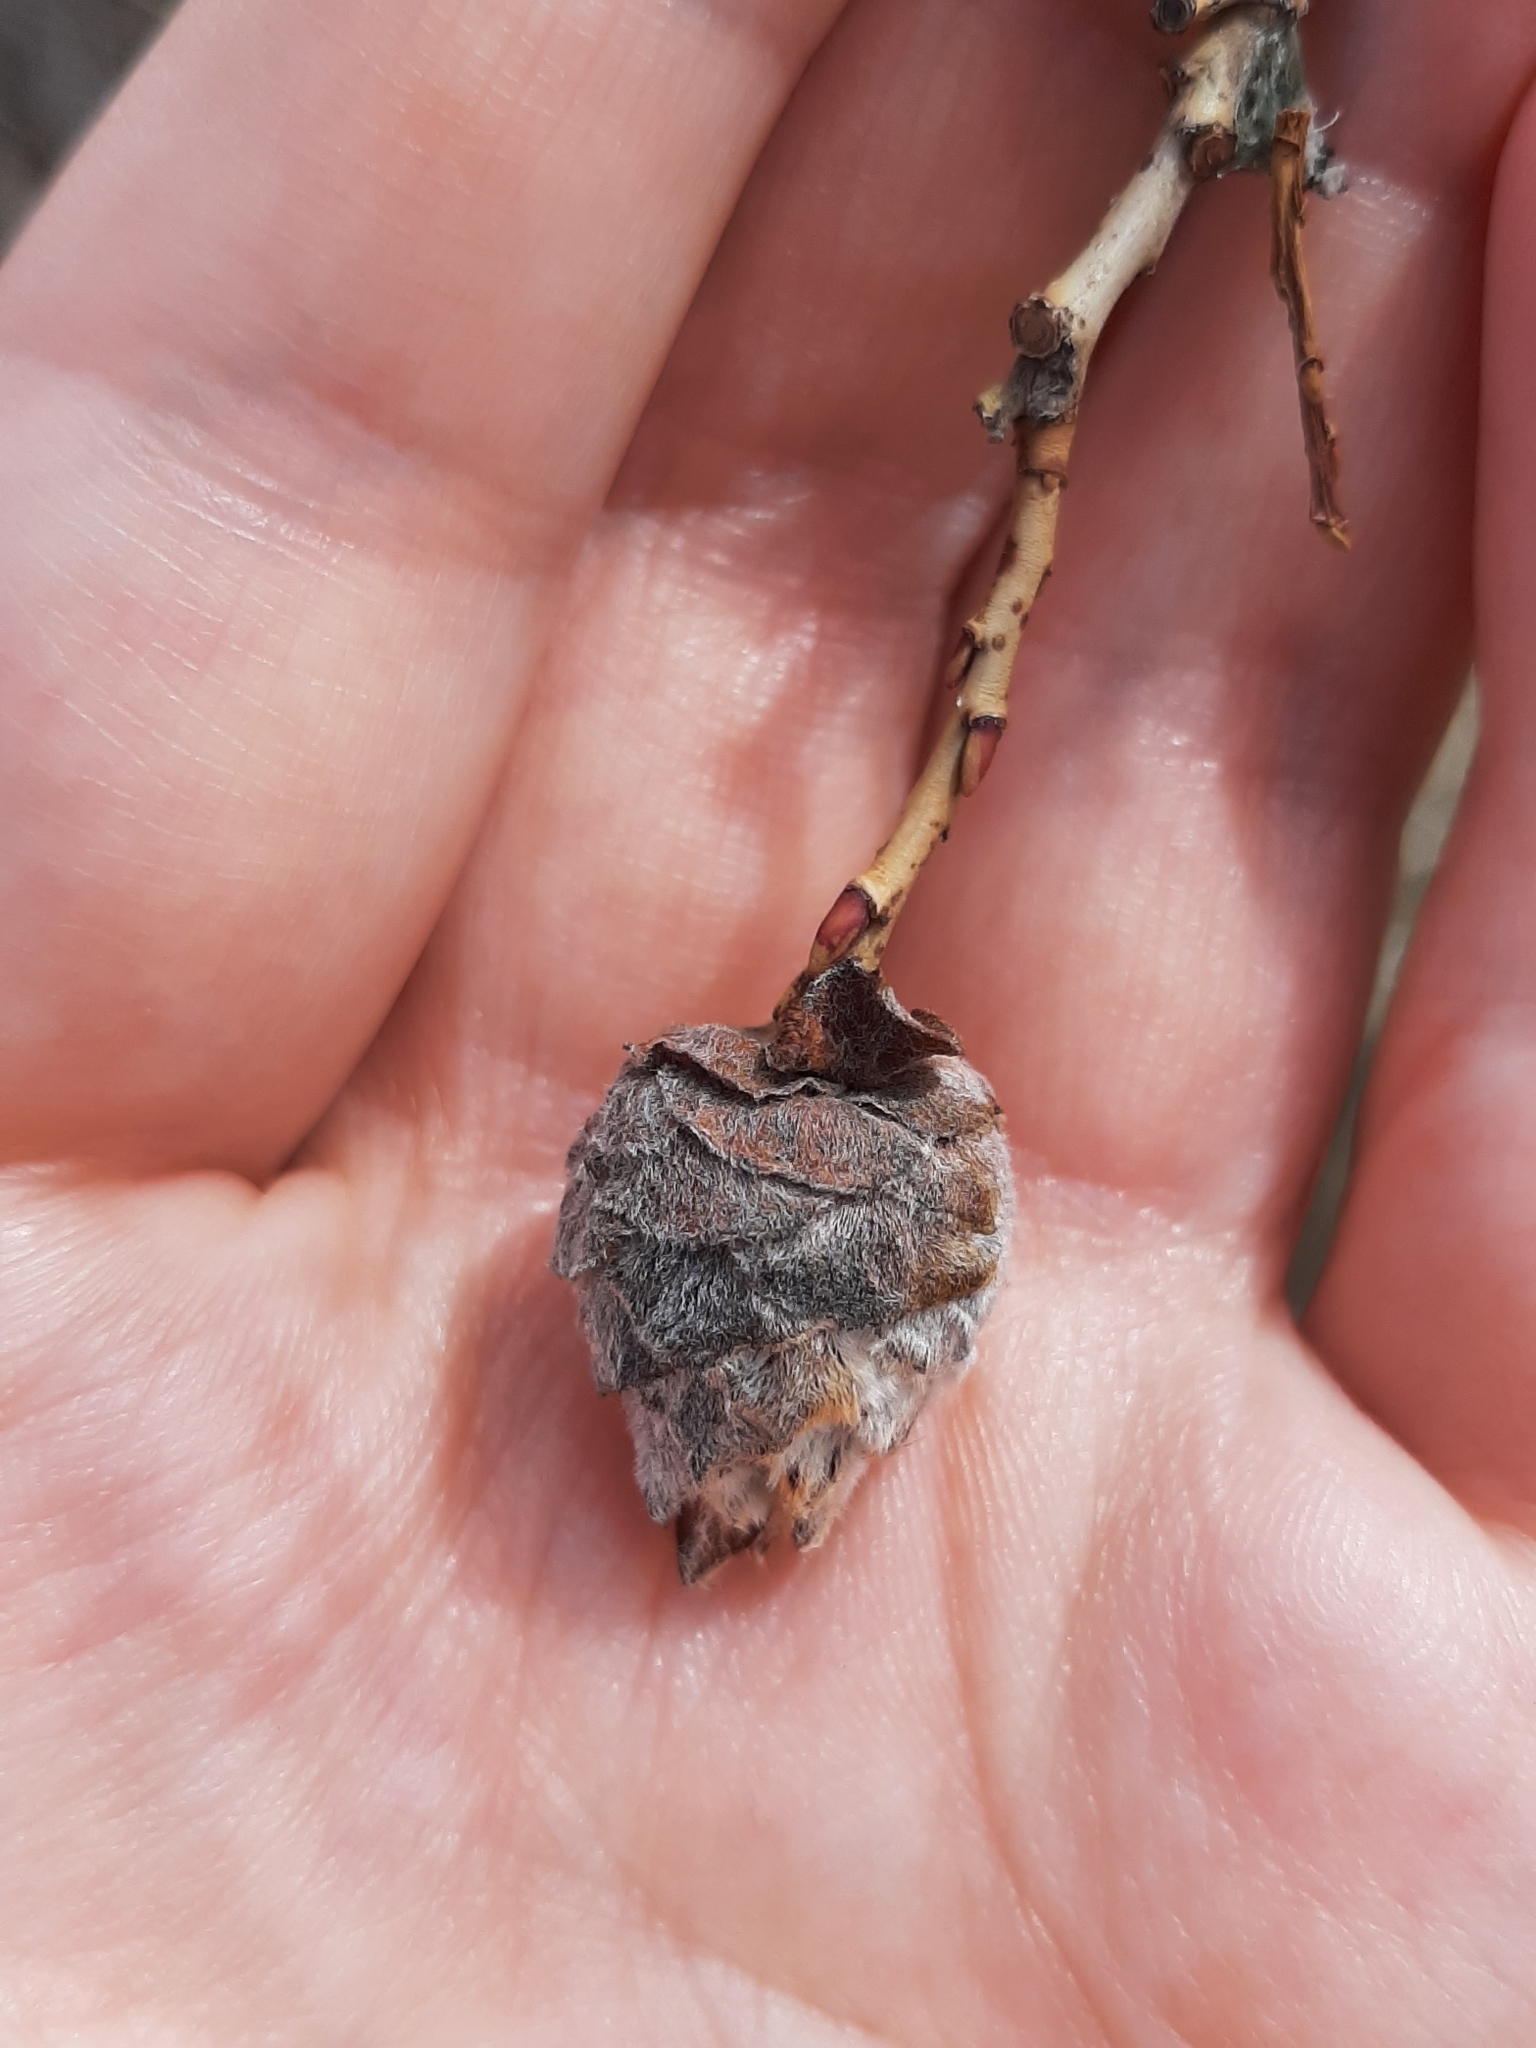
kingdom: Animalia
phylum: Arthropoda
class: Insecta
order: Diptera
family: Cecidomyiidae
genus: Rabdophaga
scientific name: Rabdophaga strobiloides
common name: Willow pinecone gall midge
